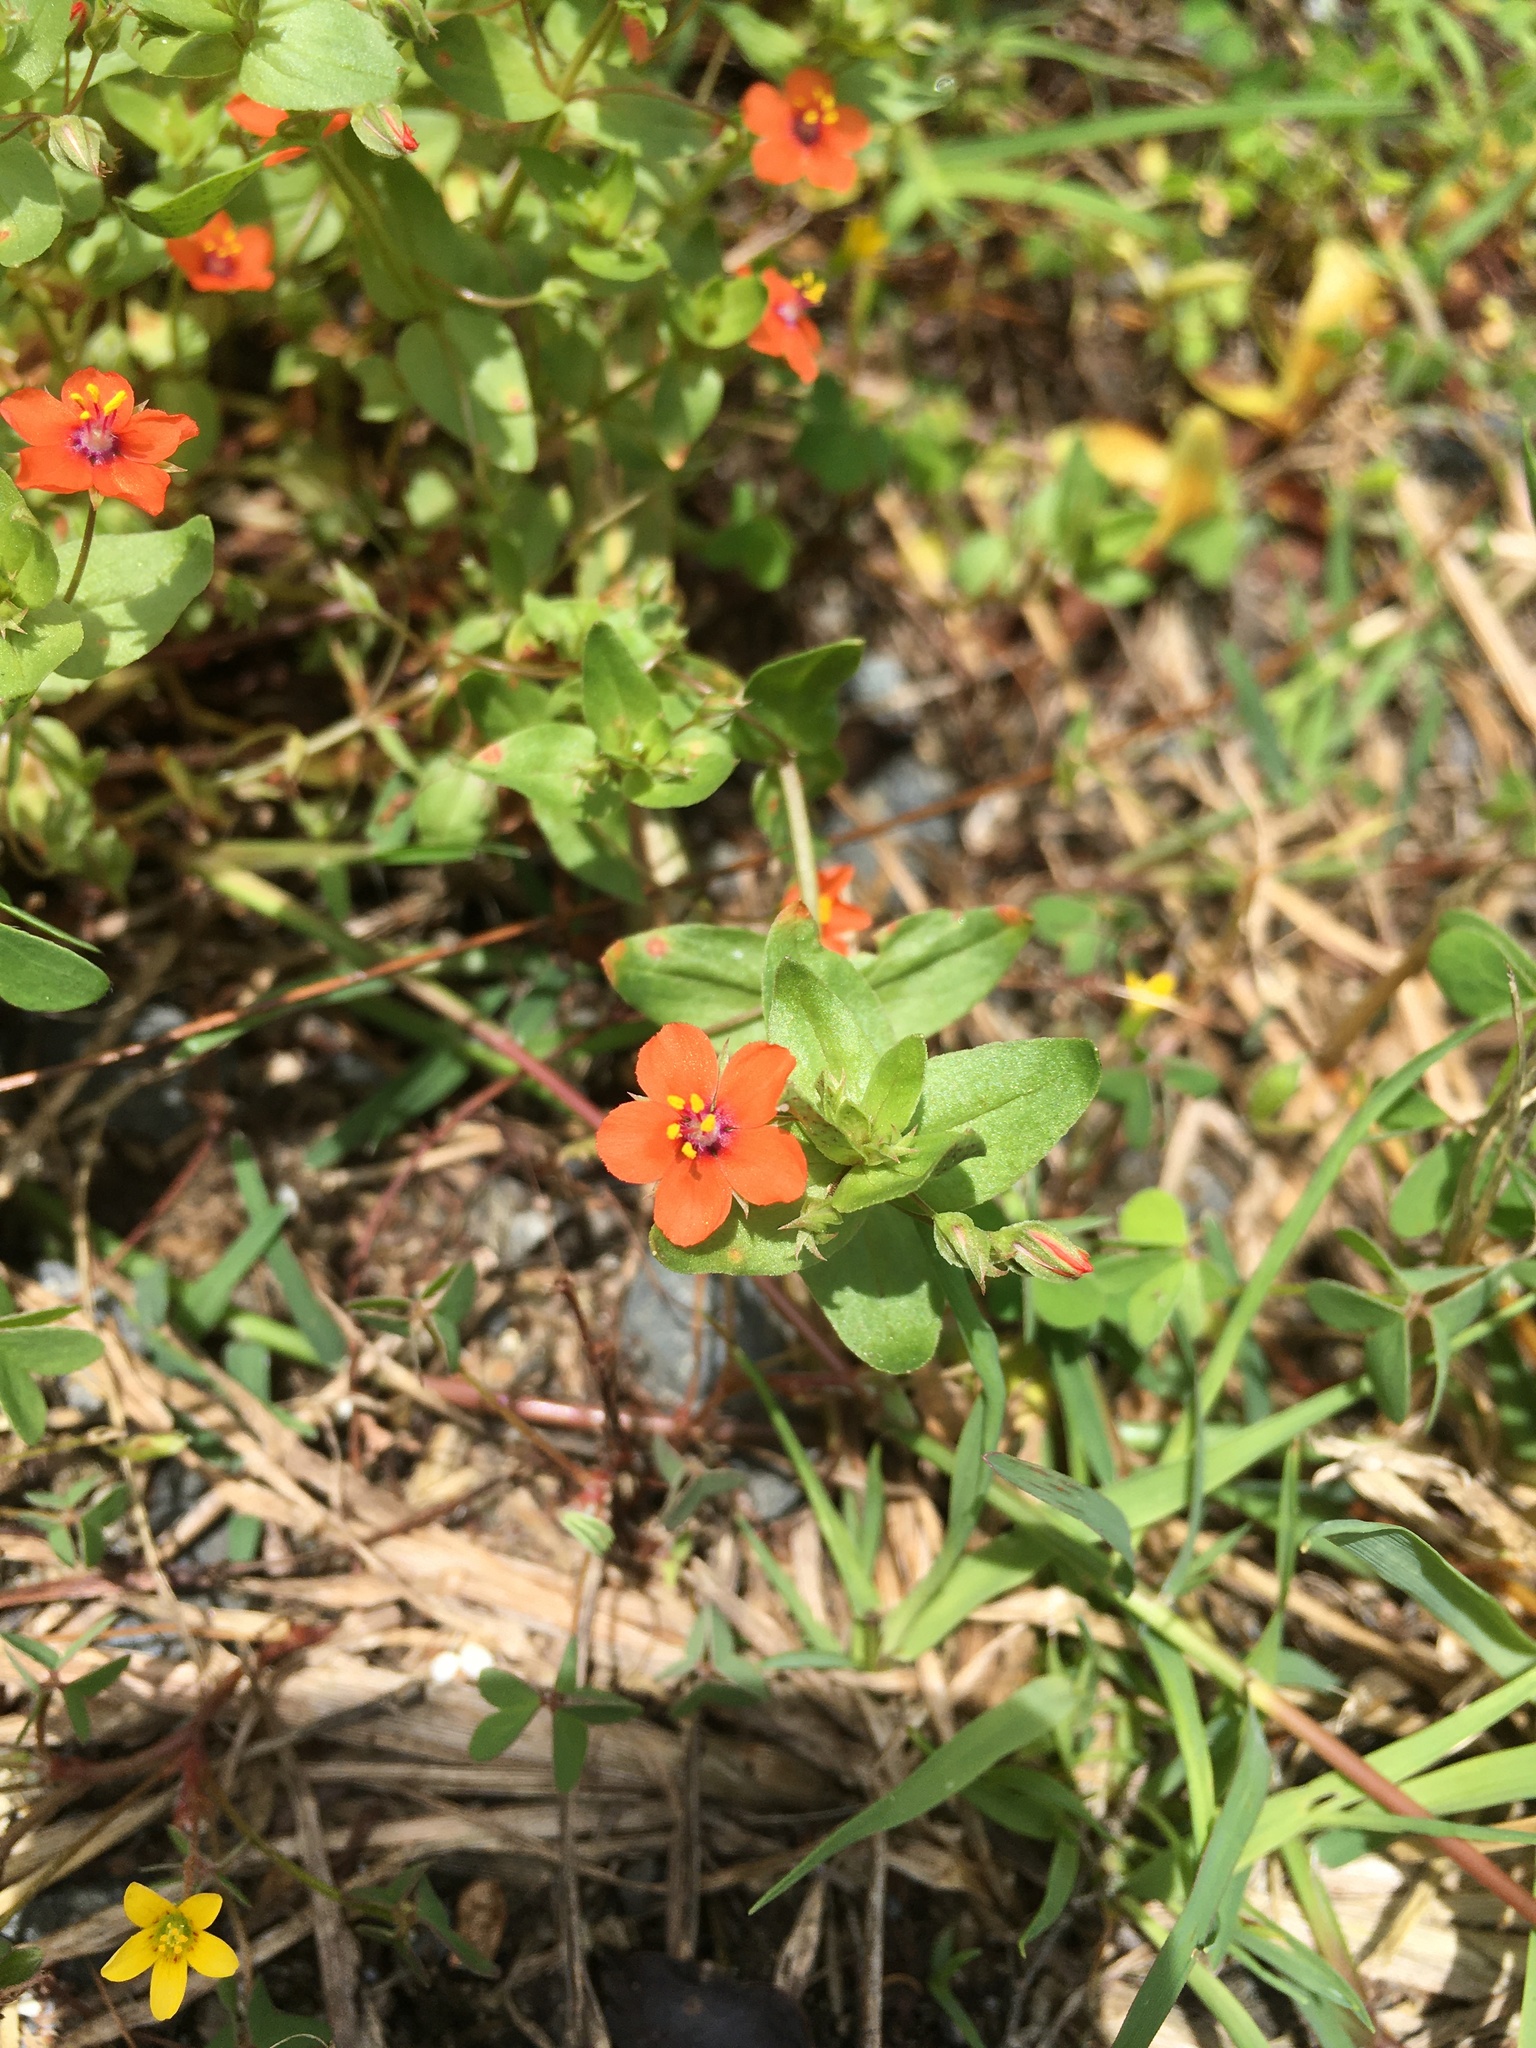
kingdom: Plantae
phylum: Tracheophyta
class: Magnoliopsida
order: Ericales
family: Primulaceae
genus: Lysimachia
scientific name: Lysimachia arvensis
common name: Scarlet pimpernel
